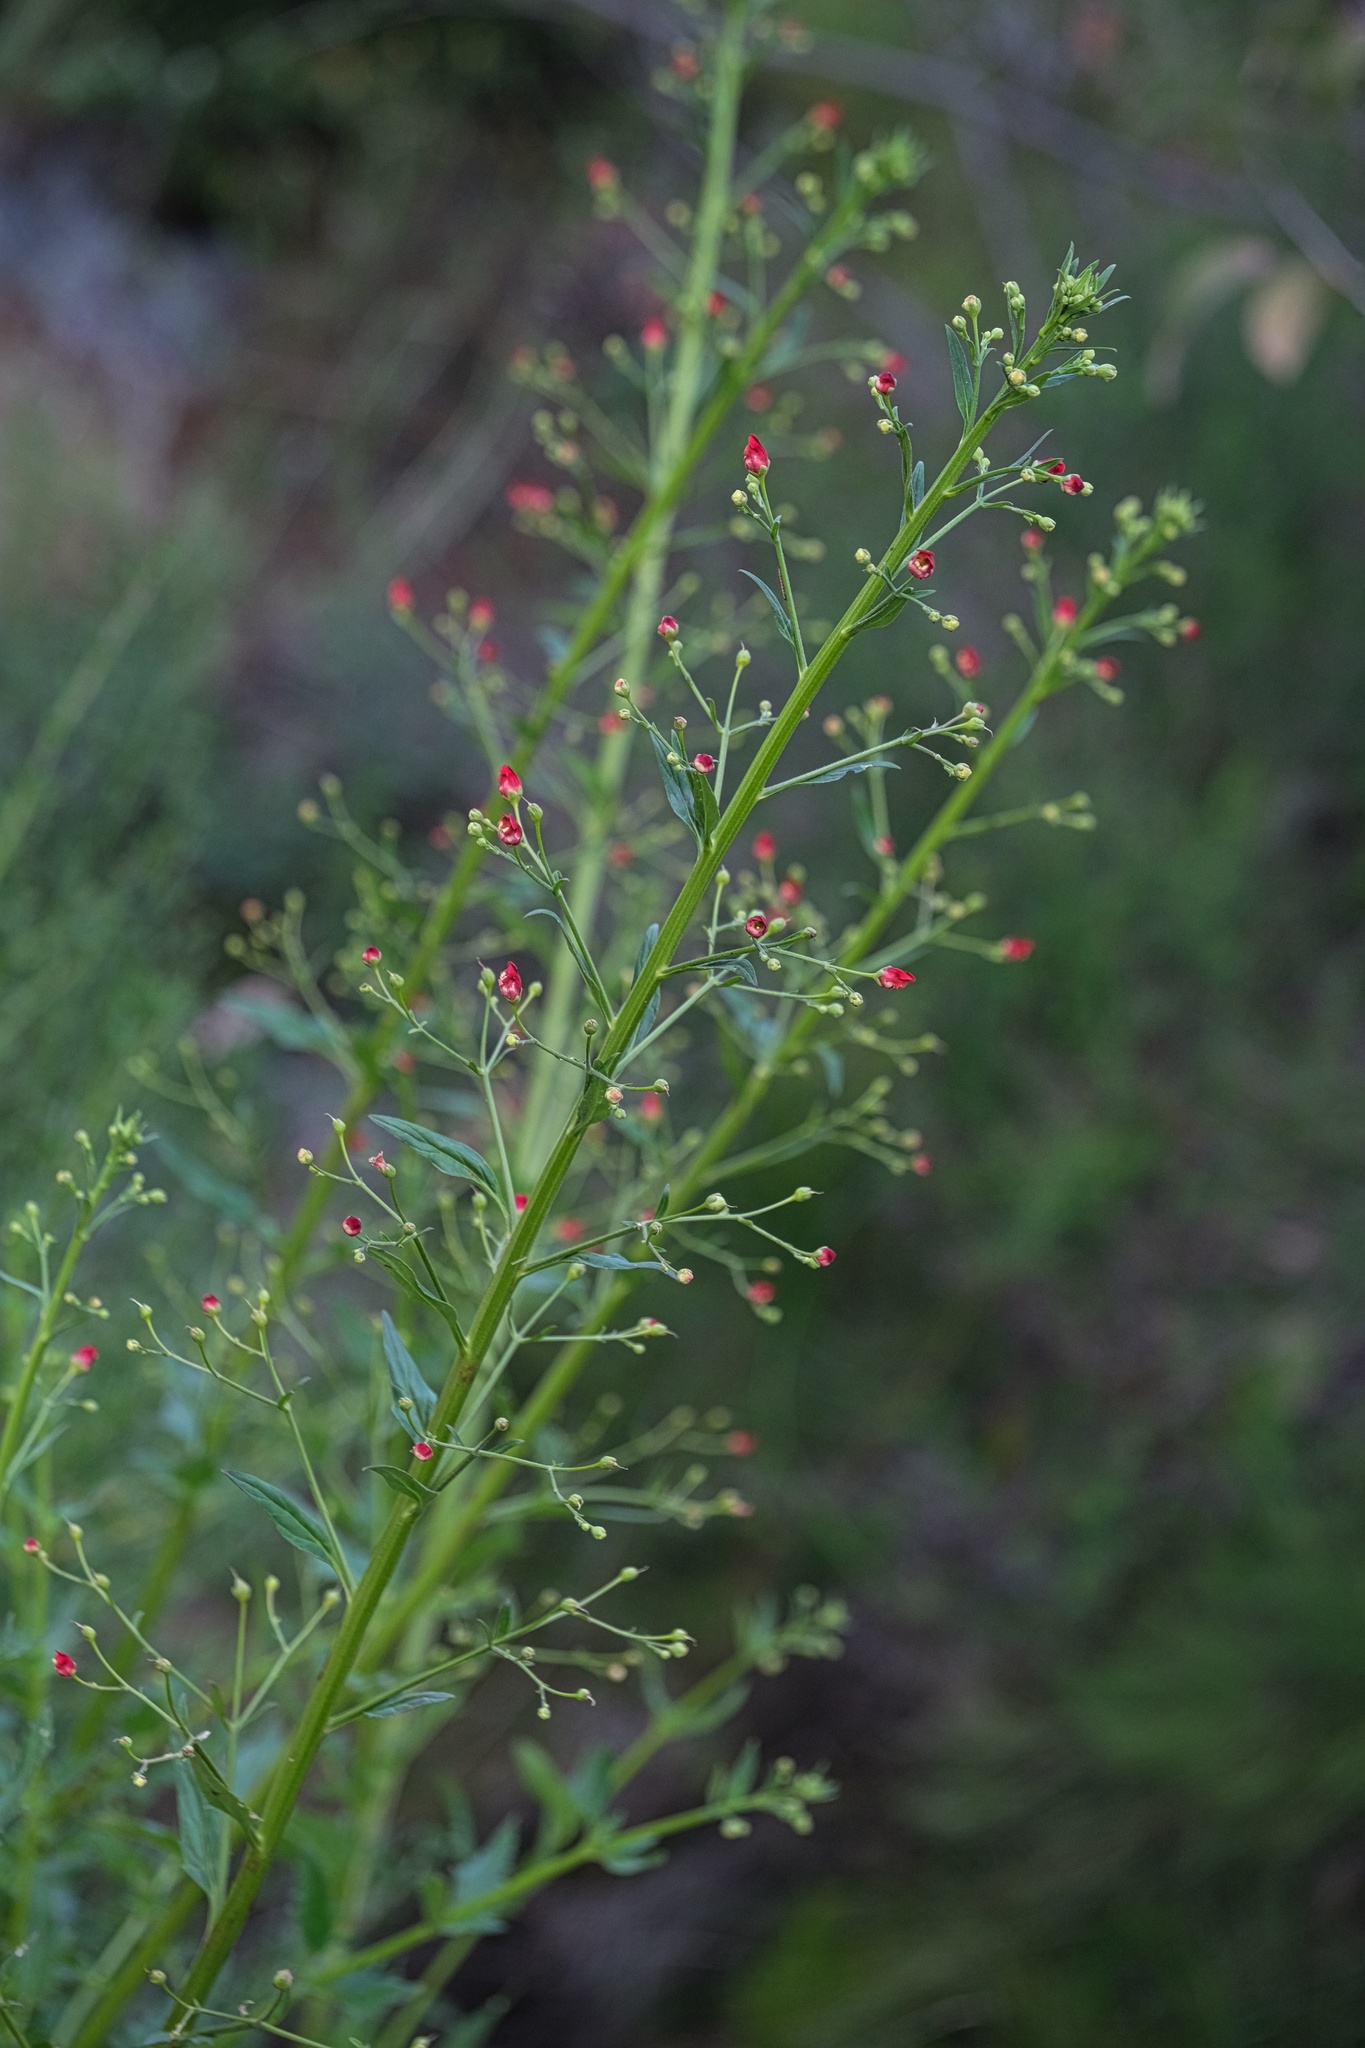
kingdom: Plantae
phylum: Tracheophyta
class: Magnoliopsida
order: Lamiales
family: Scrophulariaceae
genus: Scrophularia
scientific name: Scrophularia californica
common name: California figwort
